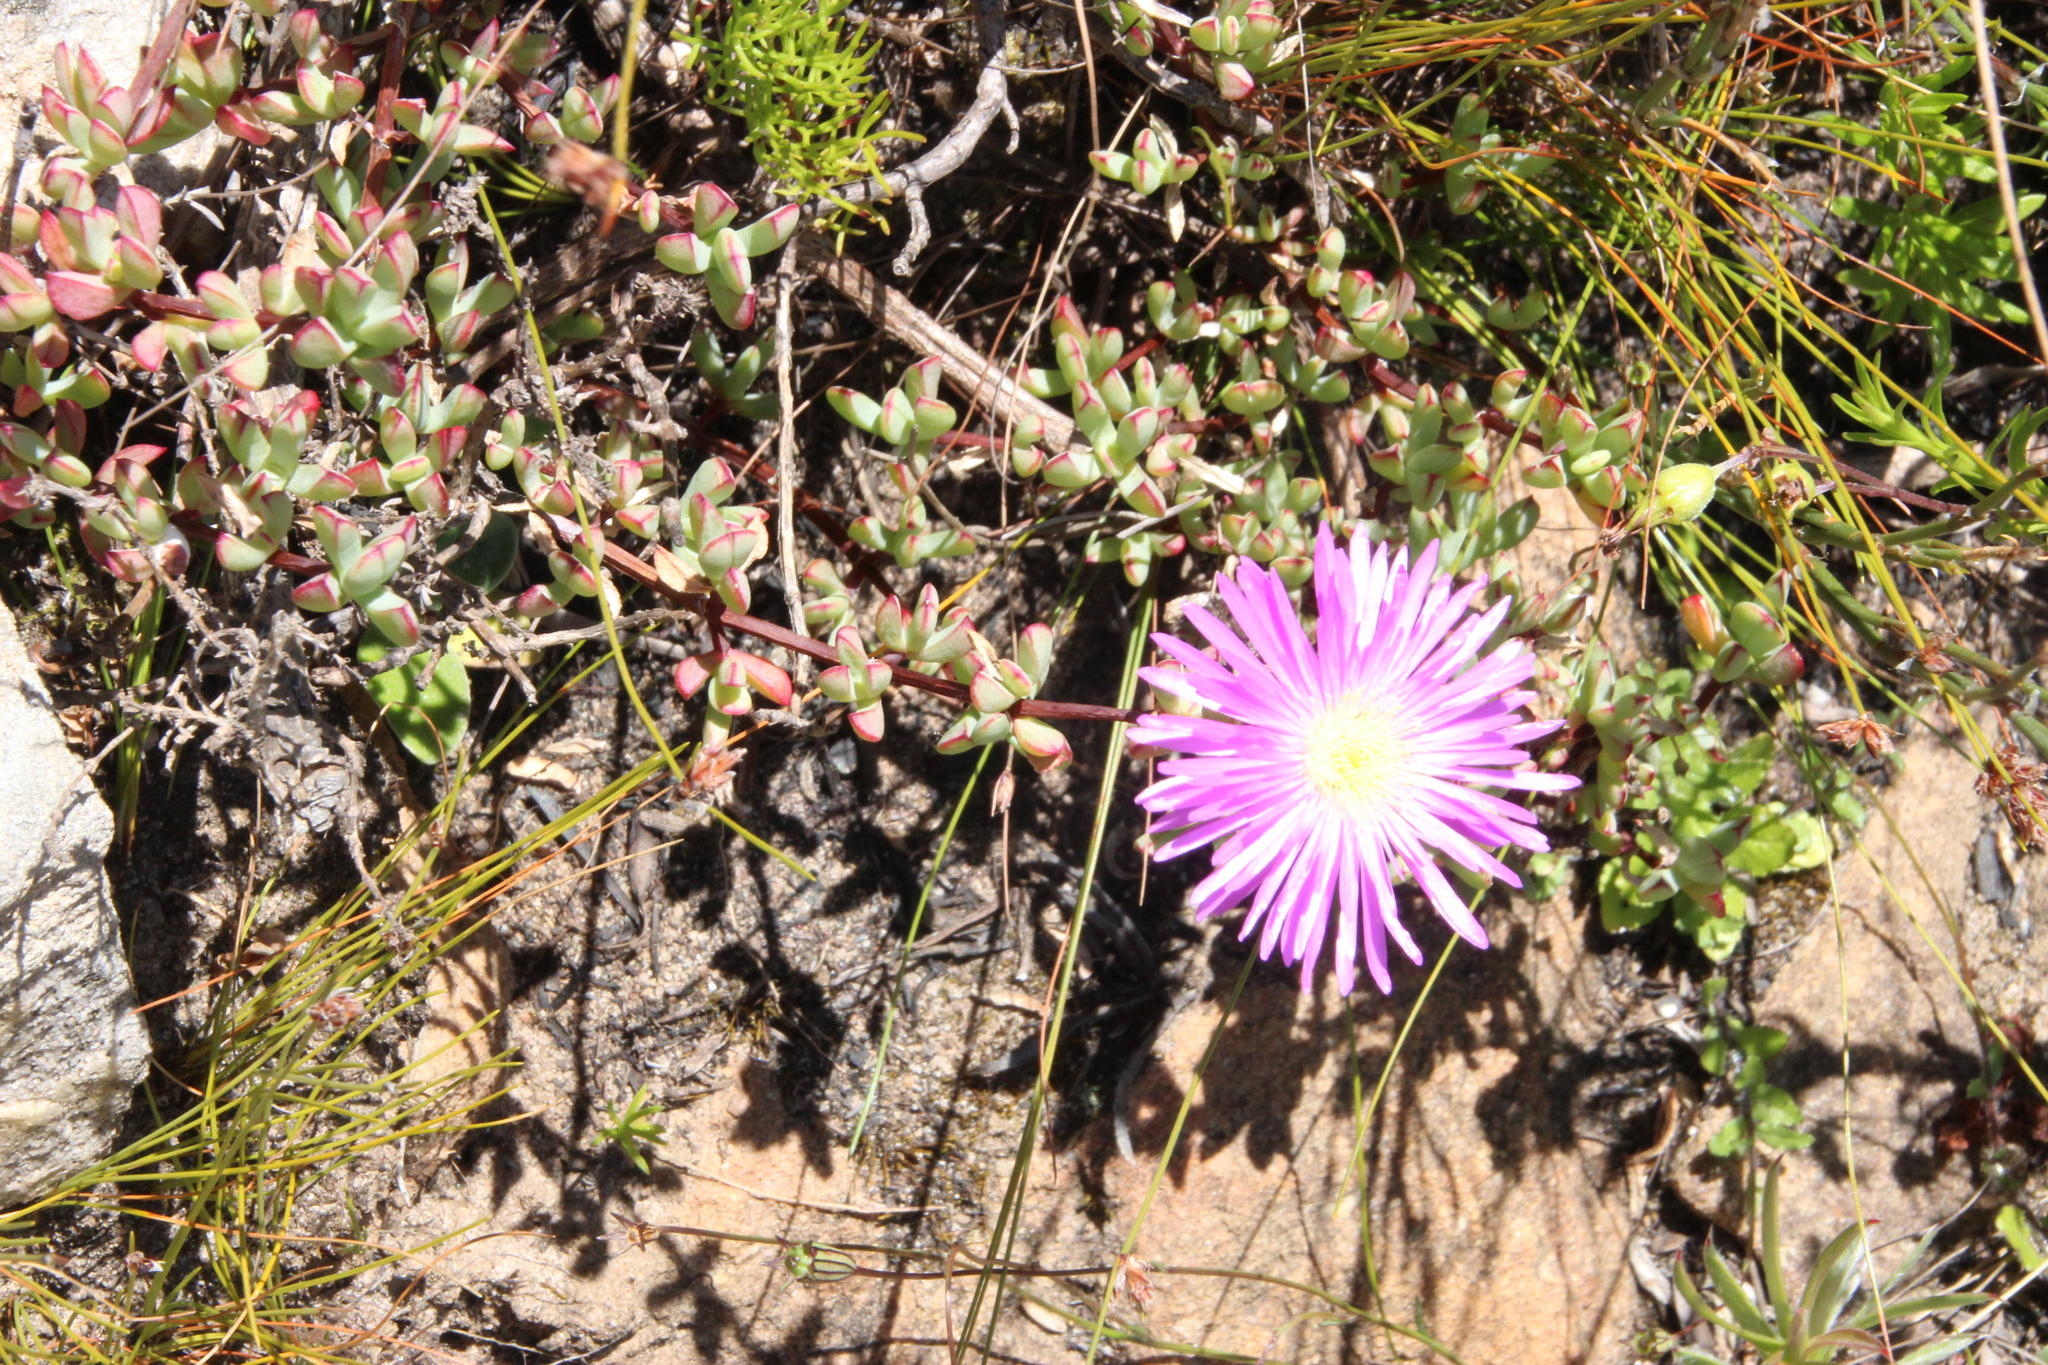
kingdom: Plantae
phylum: Tracheophyta
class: Magnoliopsida
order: Caryophyllales
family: Aizoaceae
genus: Oscularia
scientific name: Oscularia falciformis
